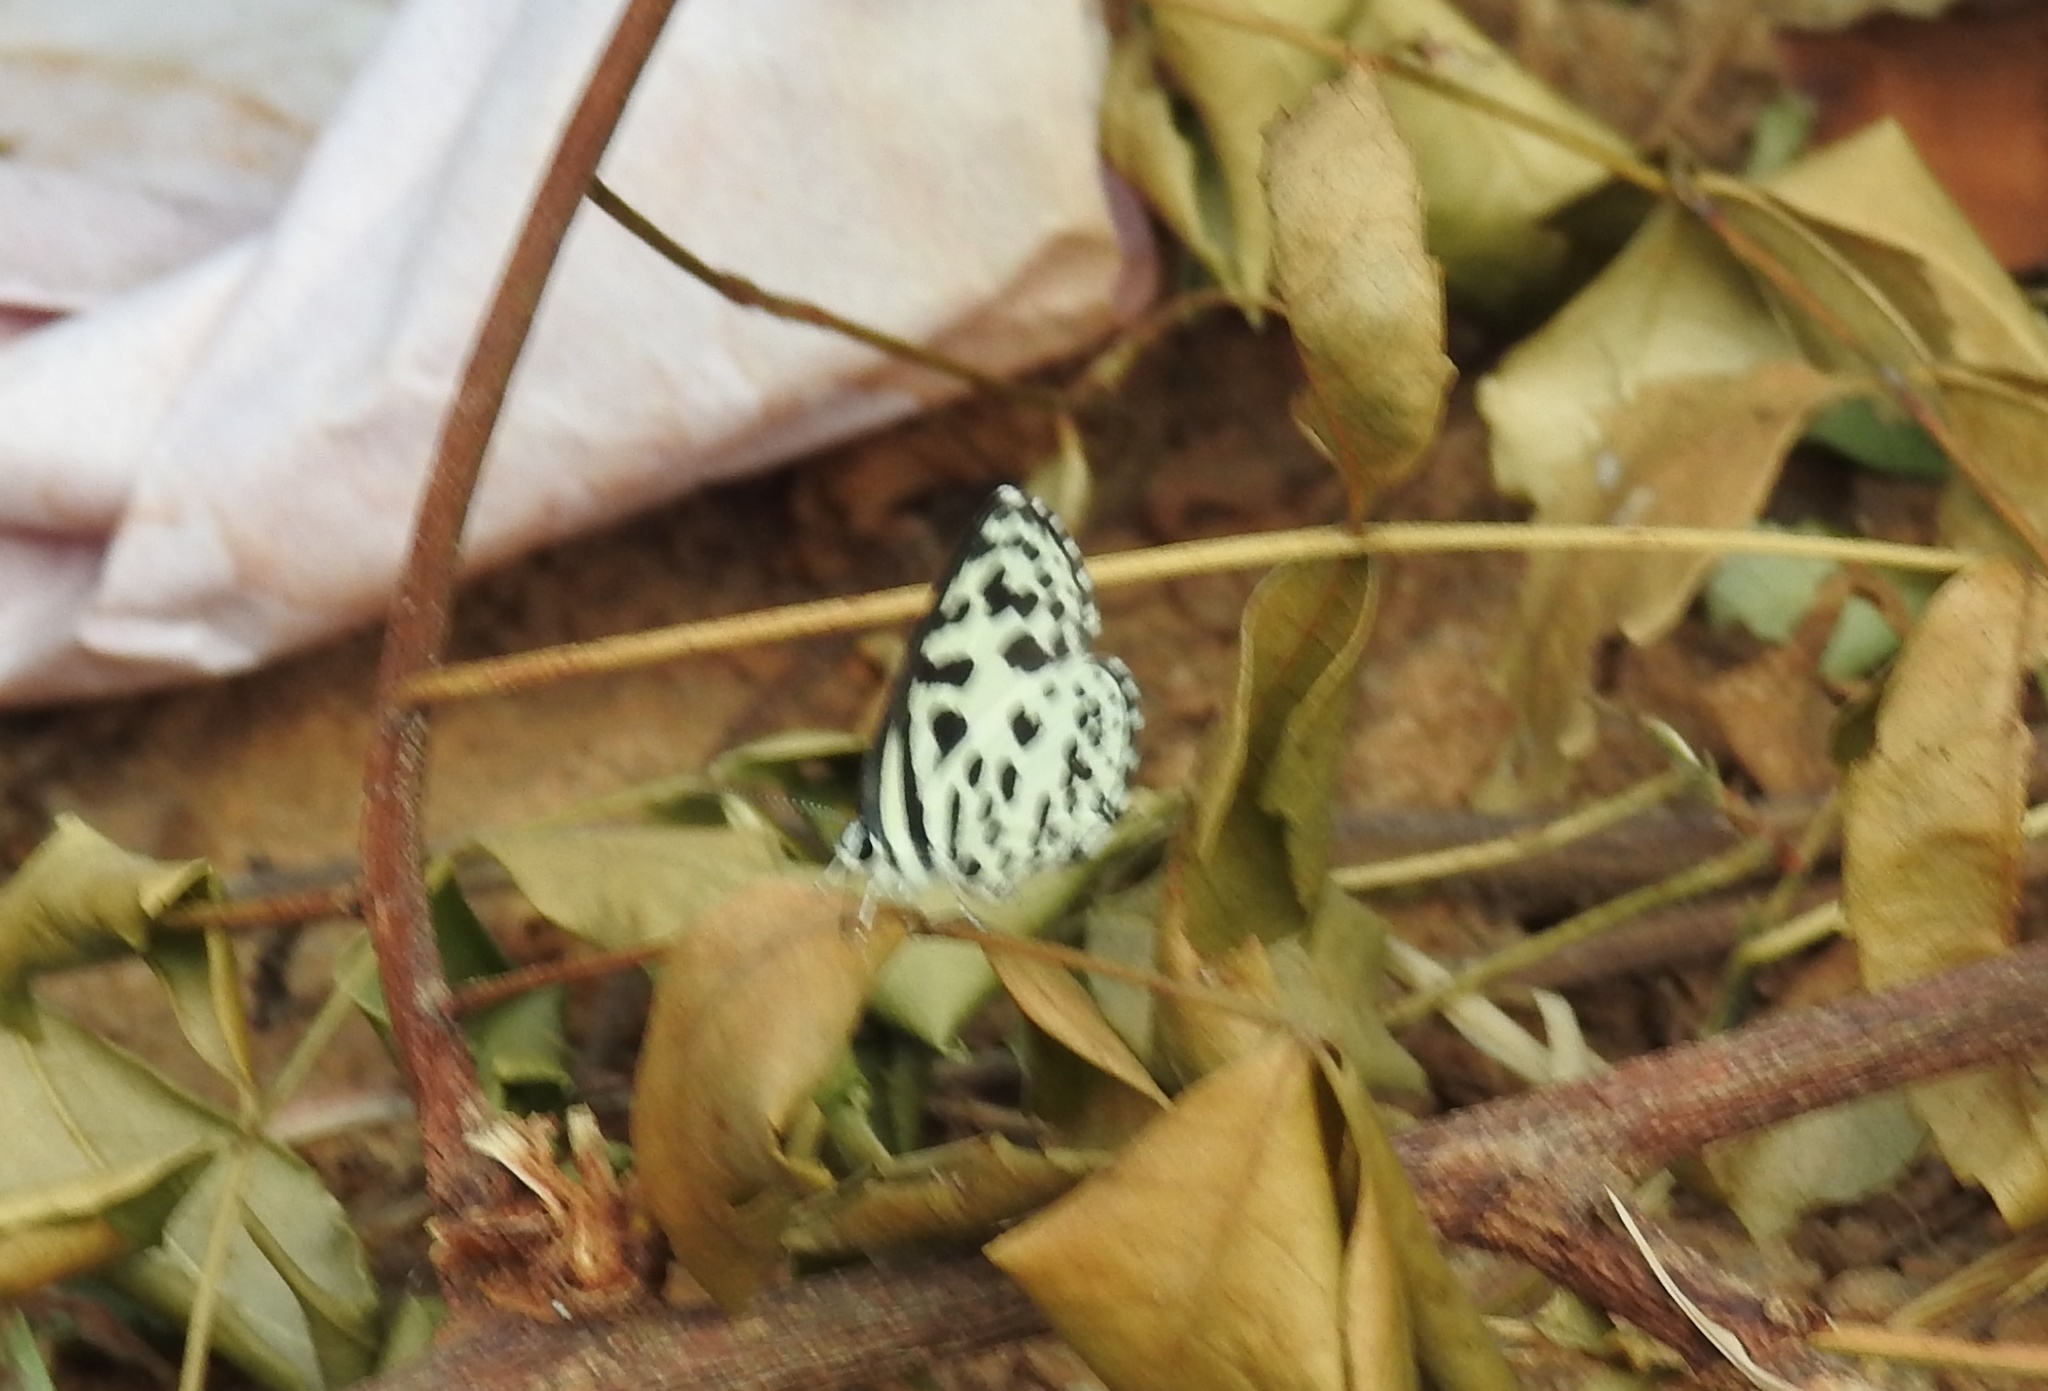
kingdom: Animalia
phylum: Arthropoda
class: Insecta
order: Lepidoptera
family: Lycaenidae
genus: Castalius
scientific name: Castalius rosimon
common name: Common pierrot
